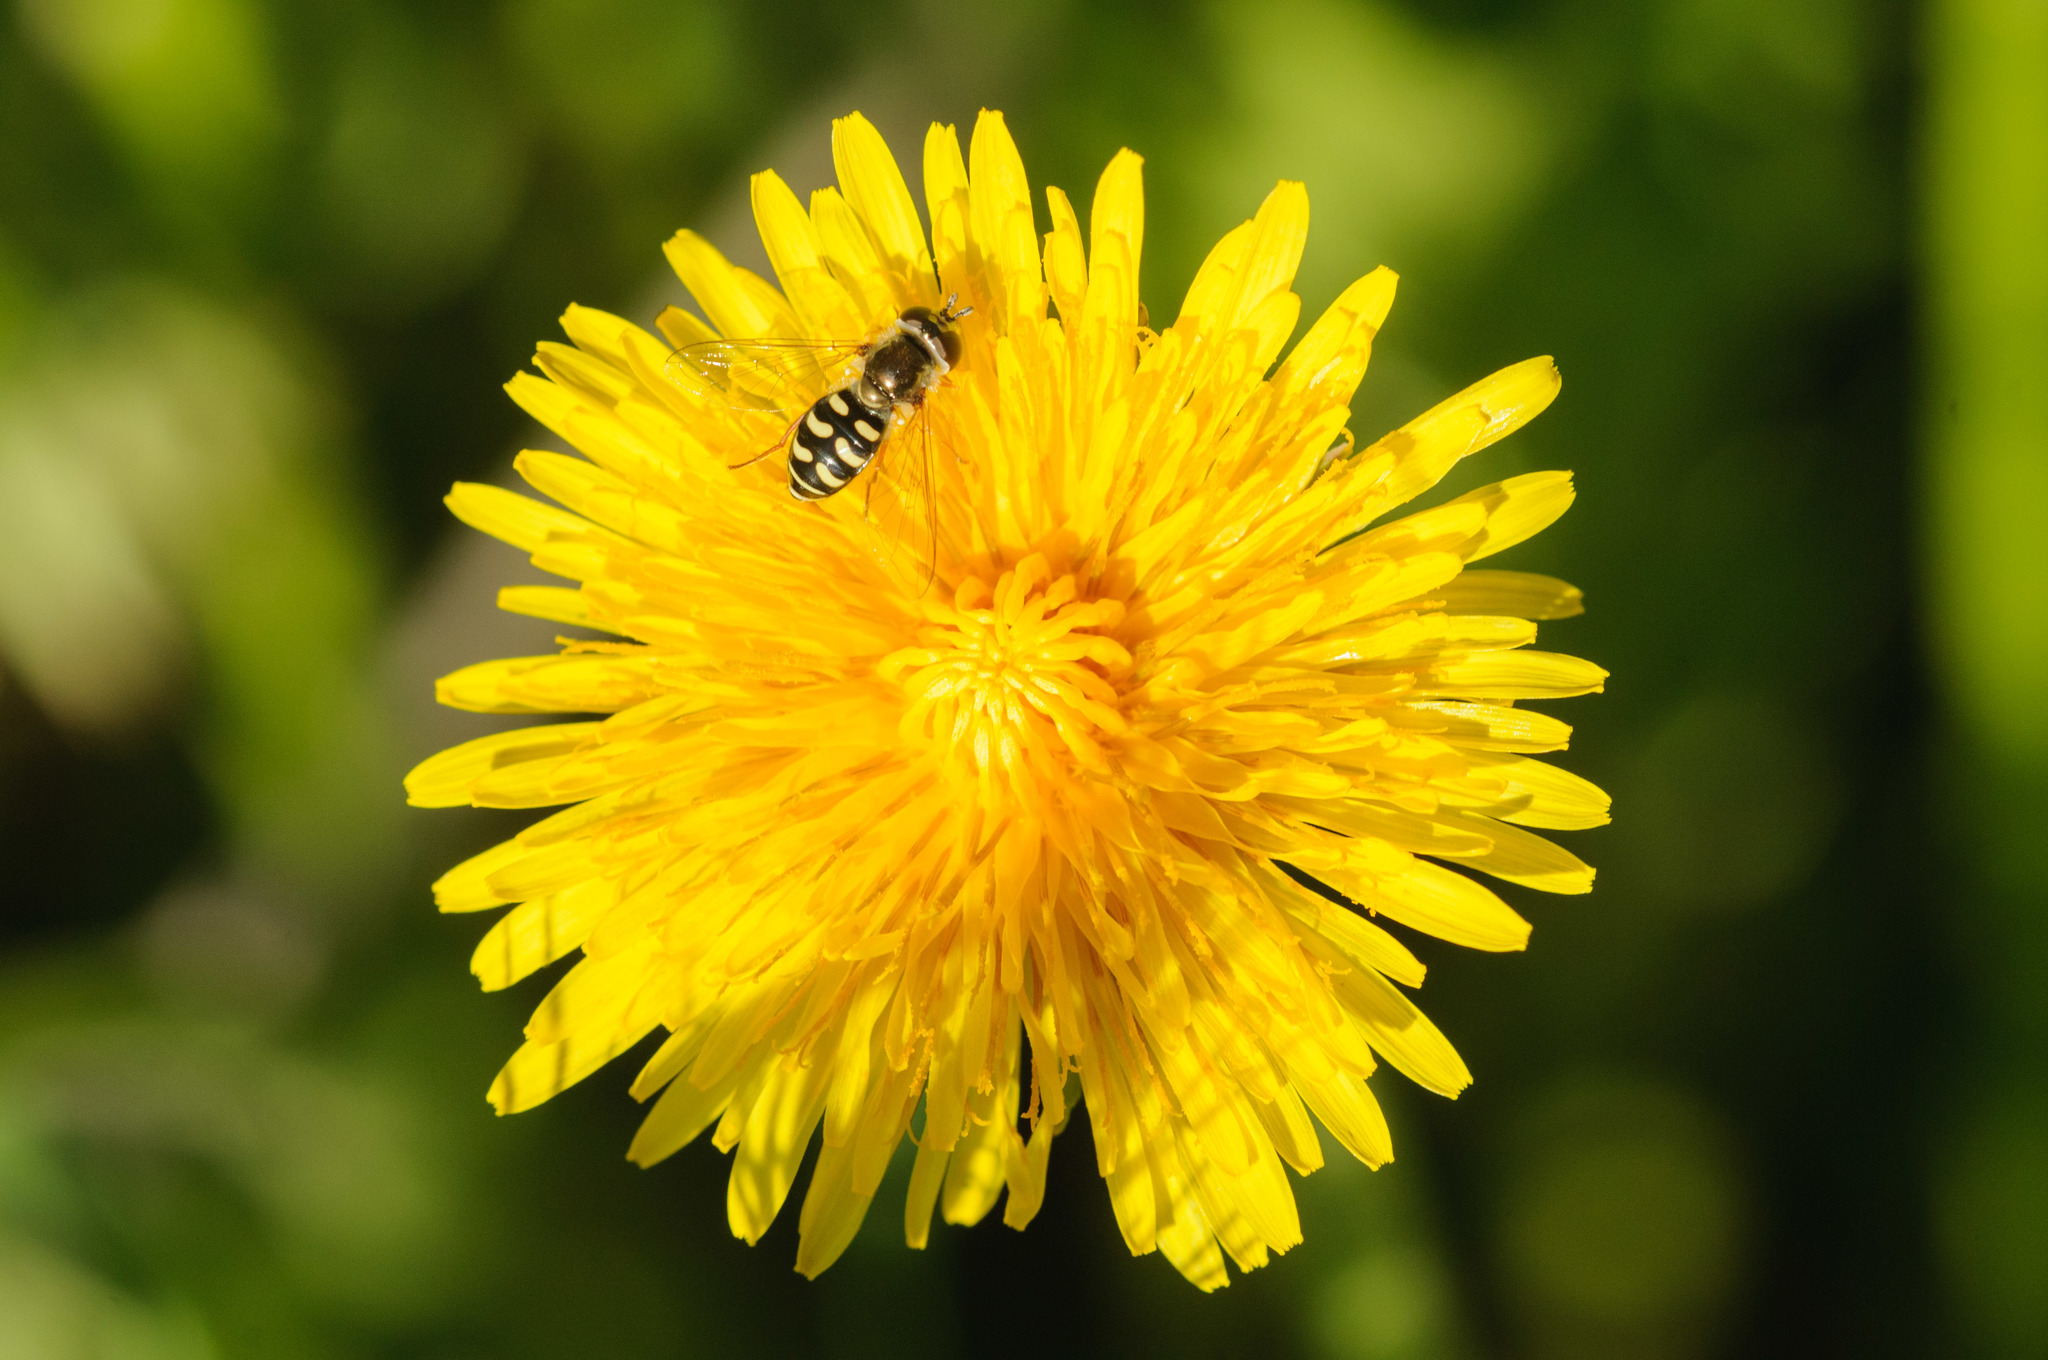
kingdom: Animalia
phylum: Arthropoda
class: Insecta
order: Diptera
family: Syrphidae
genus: Eupeodes
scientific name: Eupeodes volucris
